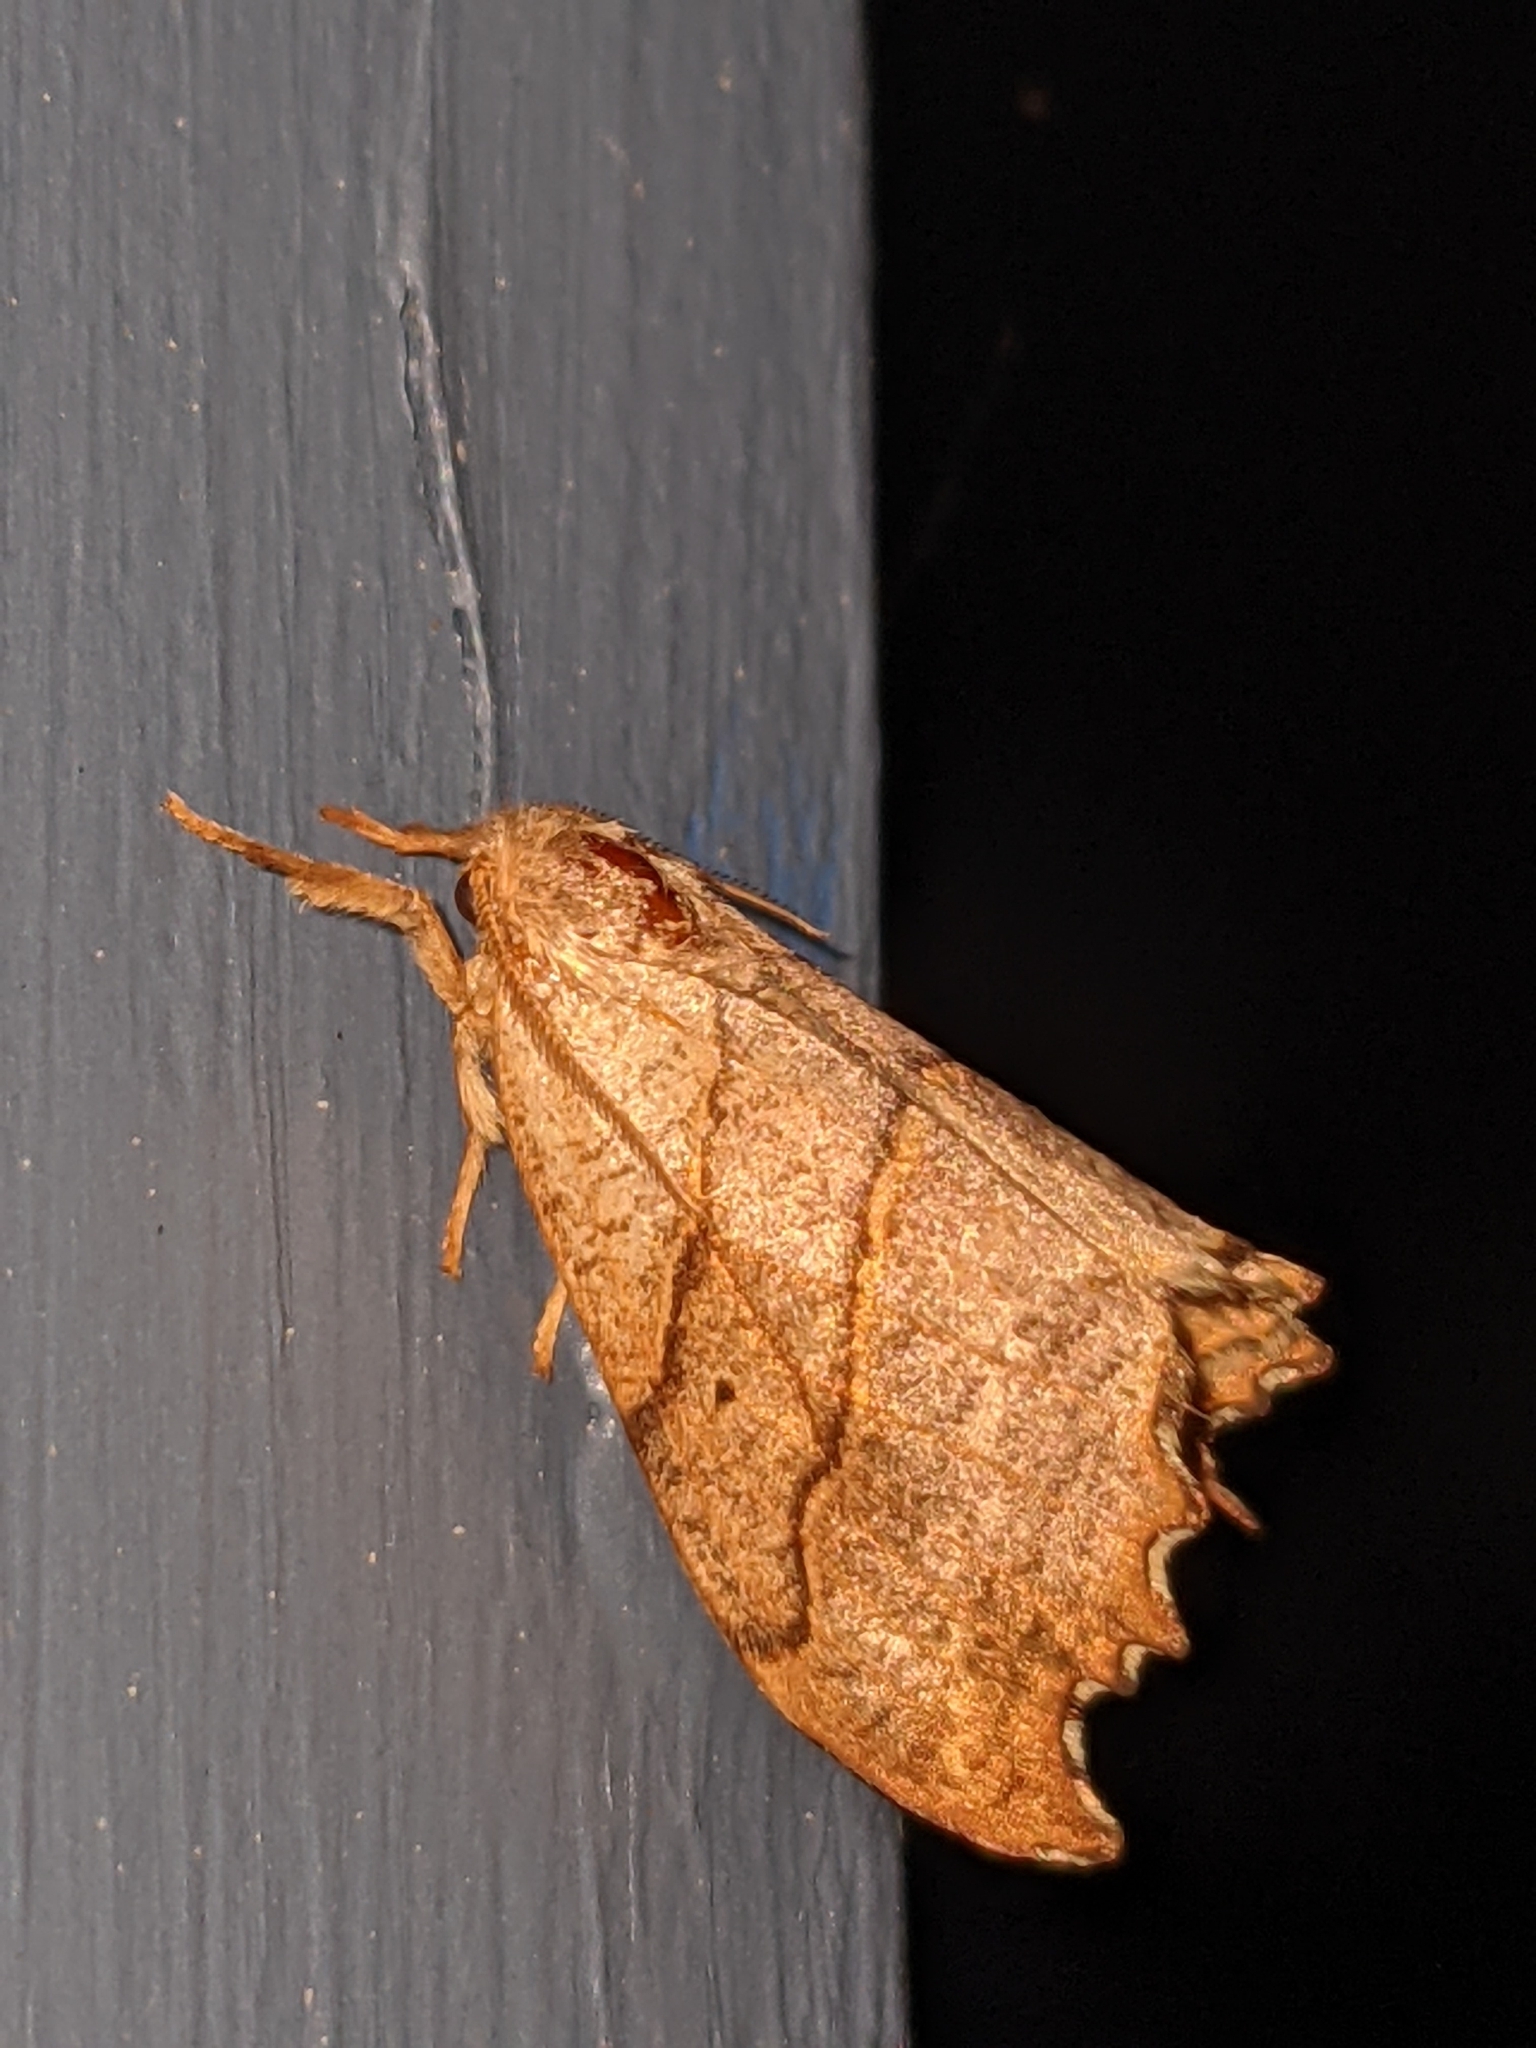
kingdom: Animalia
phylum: Arthropoda
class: Insecta
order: Lepidoptera
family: Drepanidae
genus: Falcaria
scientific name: Falcaria bilineata
